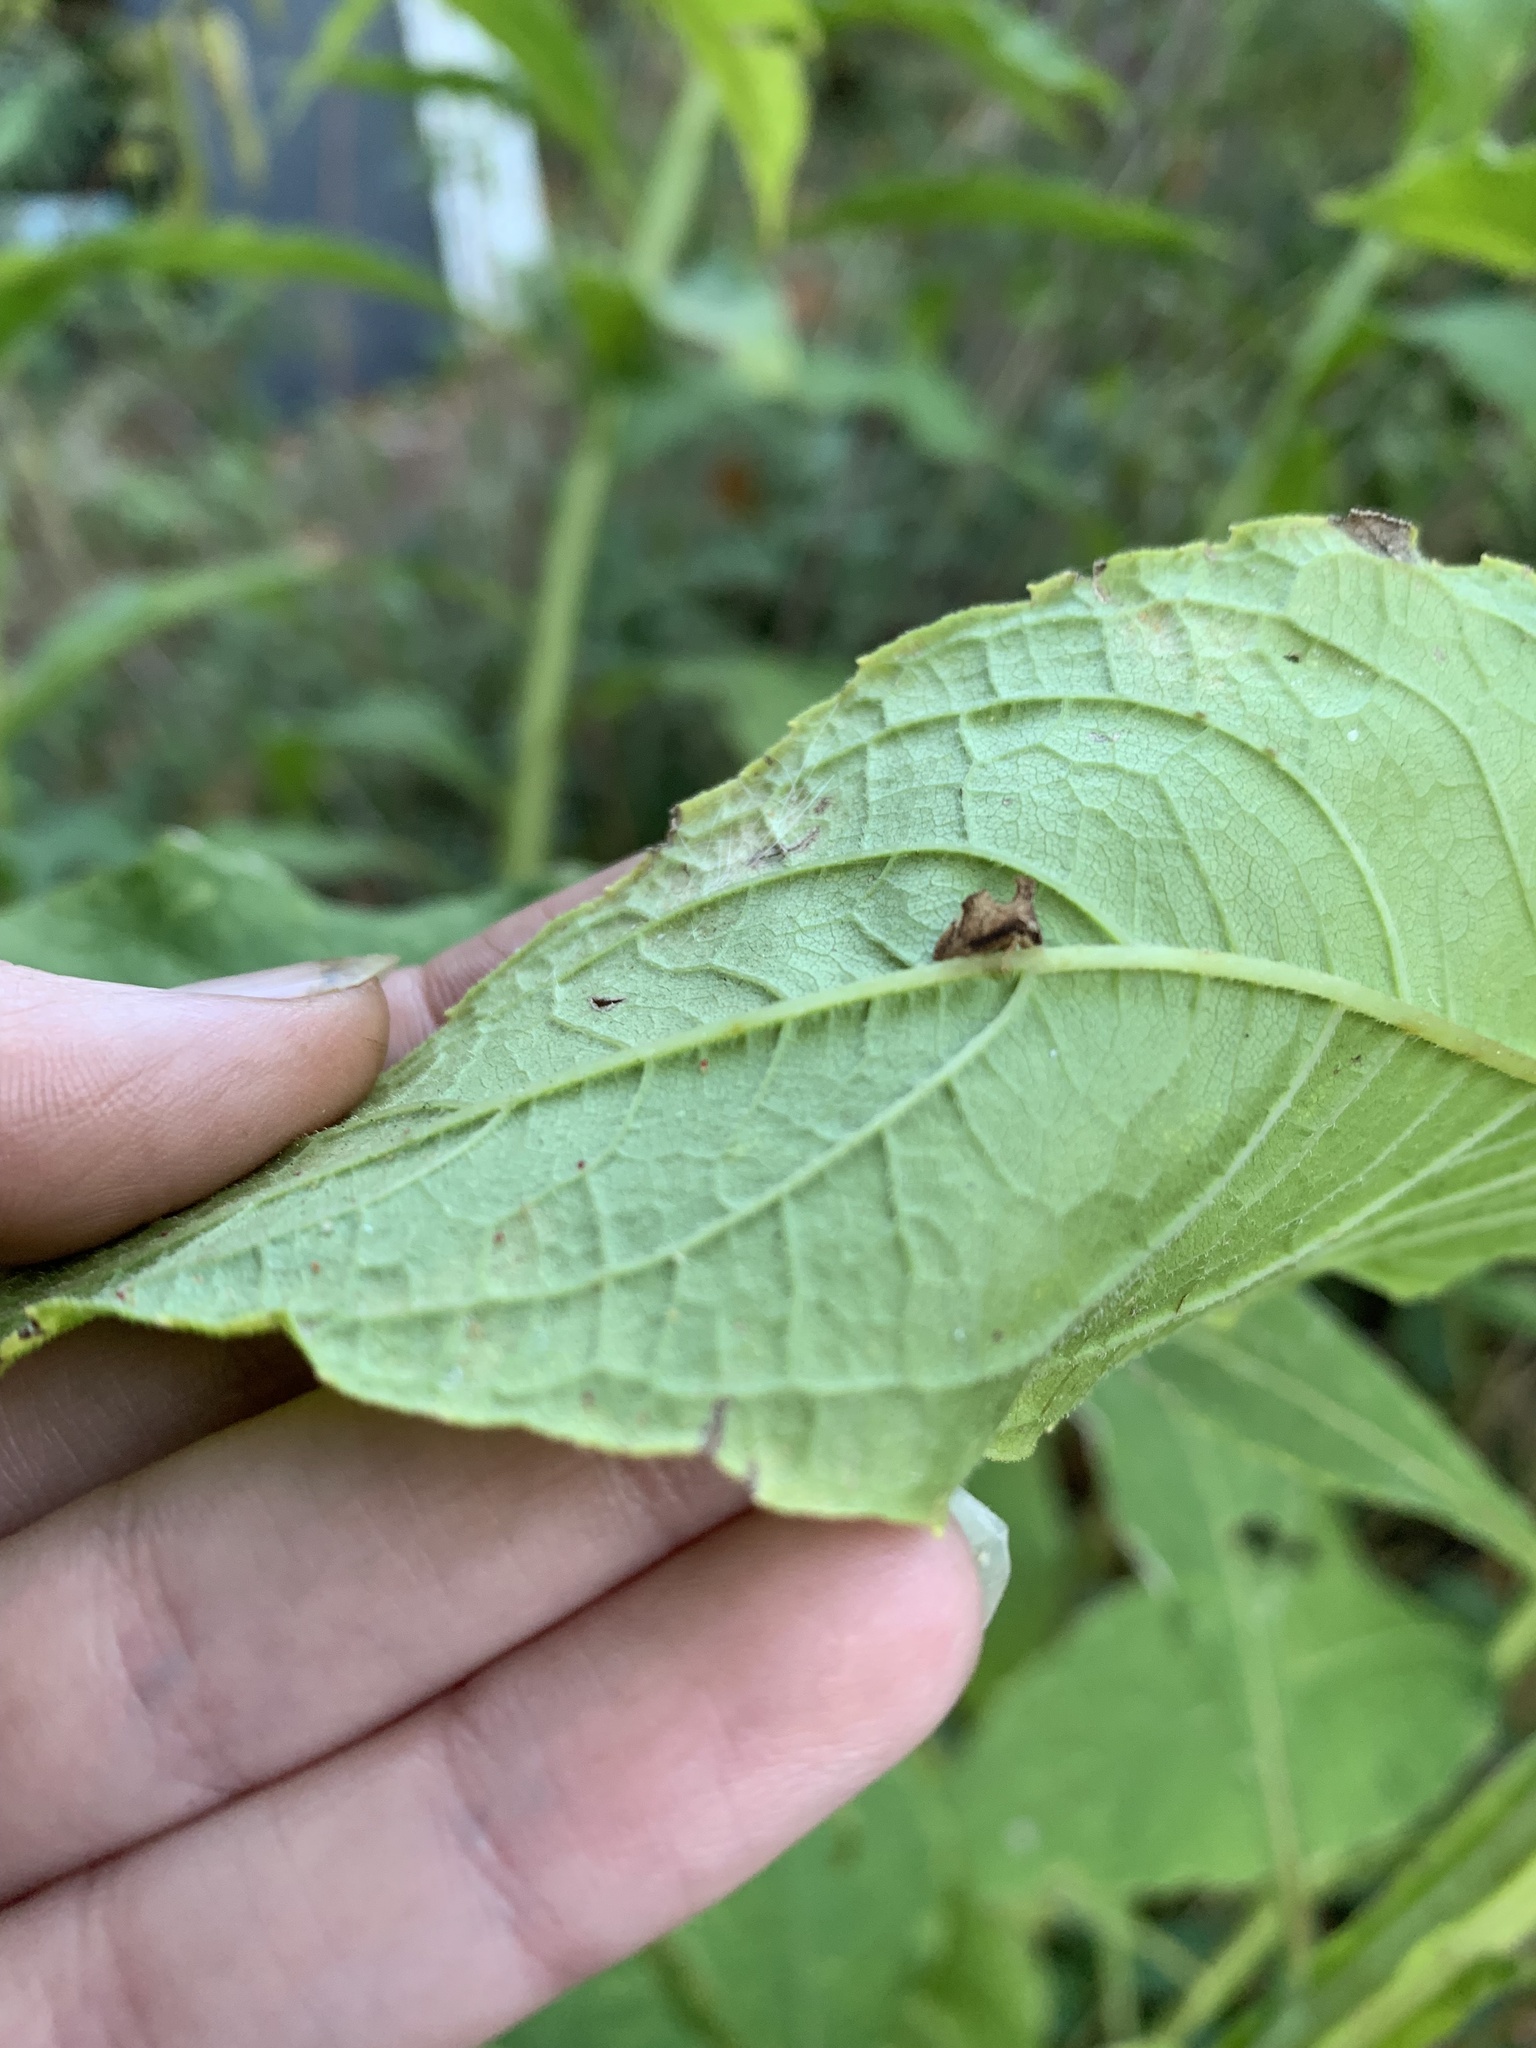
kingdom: Animalia
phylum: Arthropoda
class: Insecta
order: Hemiptera
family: Membracidae
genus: Entylia
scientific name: Entylia carinata
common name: Keeled treehopper
